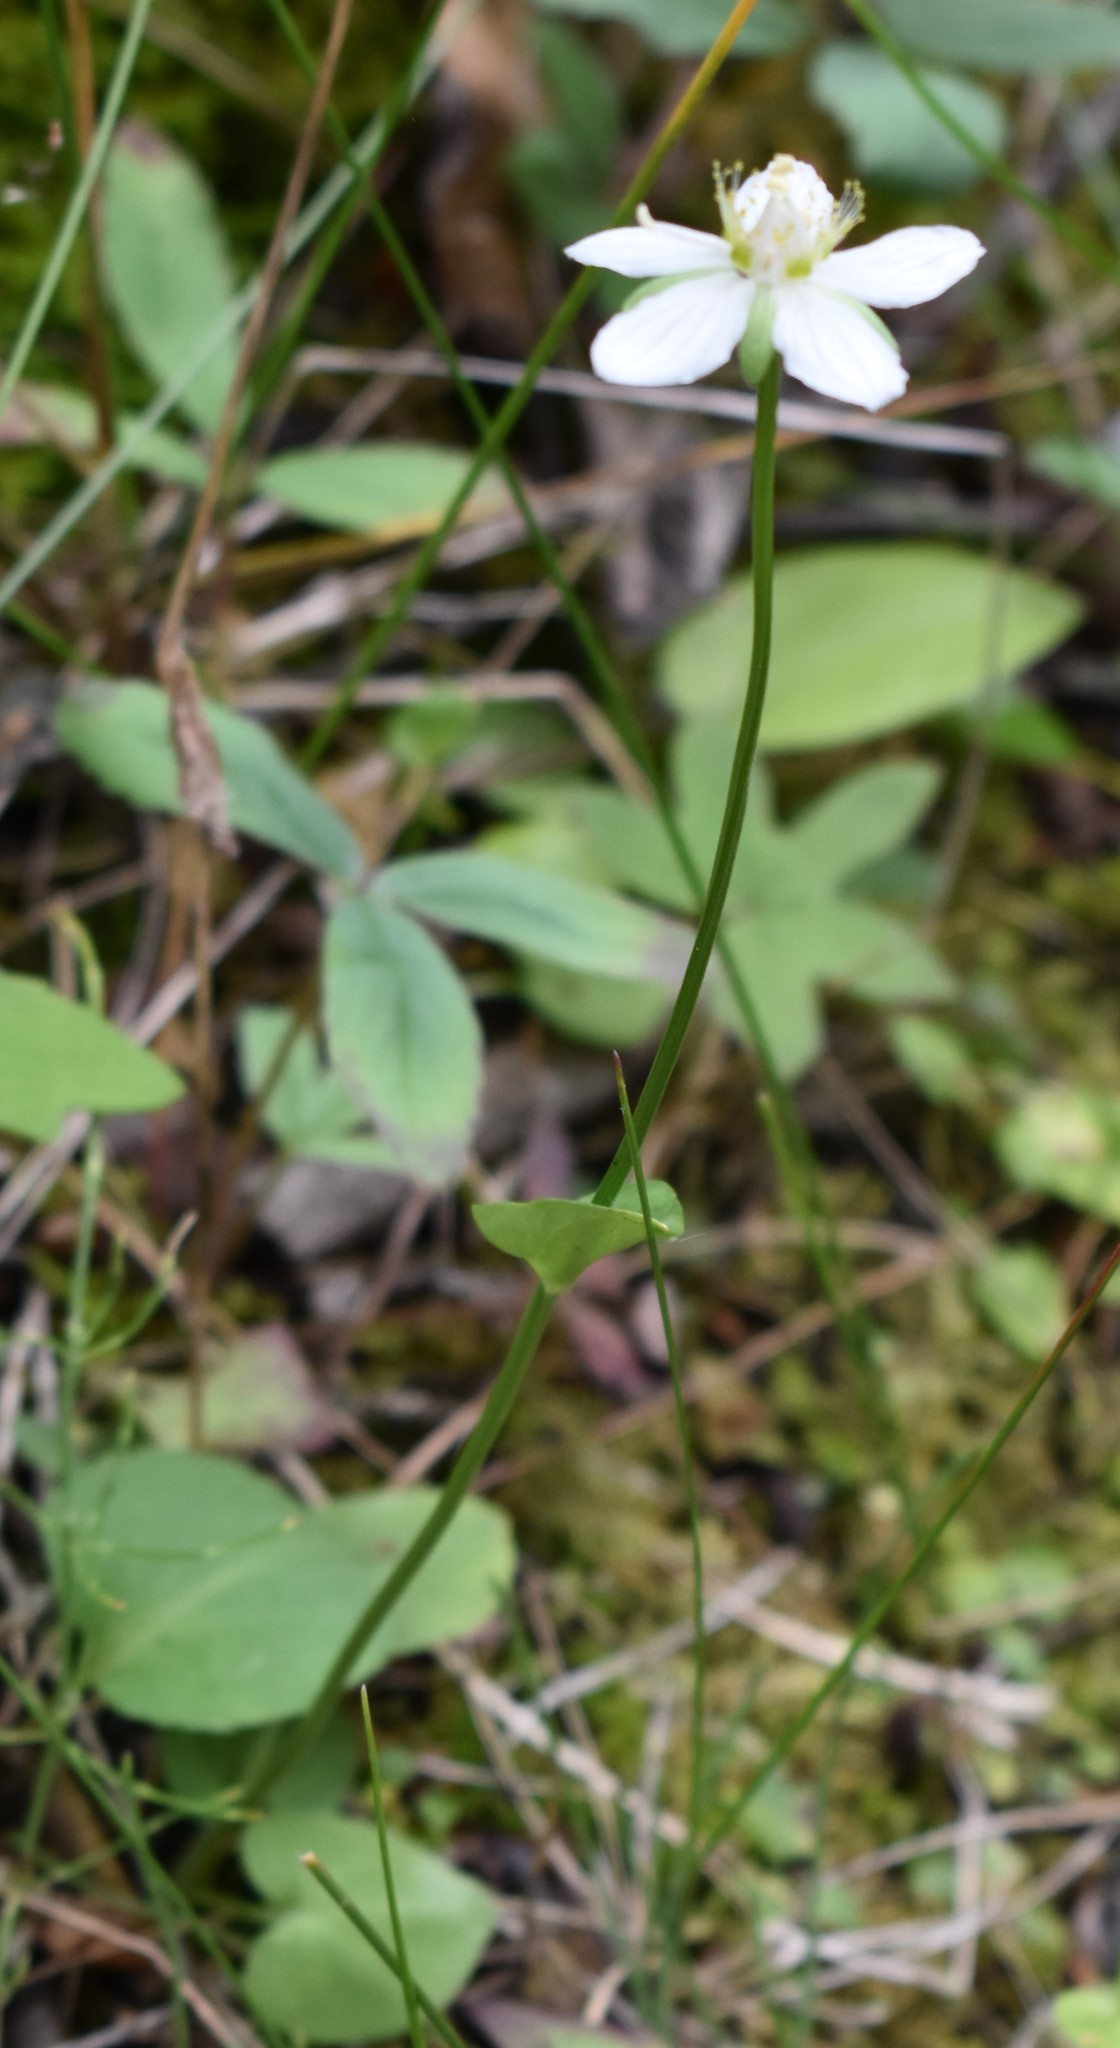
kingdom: Plantae
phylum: Tracheophyta
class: Magnoliopsida
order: Celastrales
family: Parnassiaceae
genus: Parnassia
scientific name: Parnassia palustris
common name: Grass-of-parnassus
